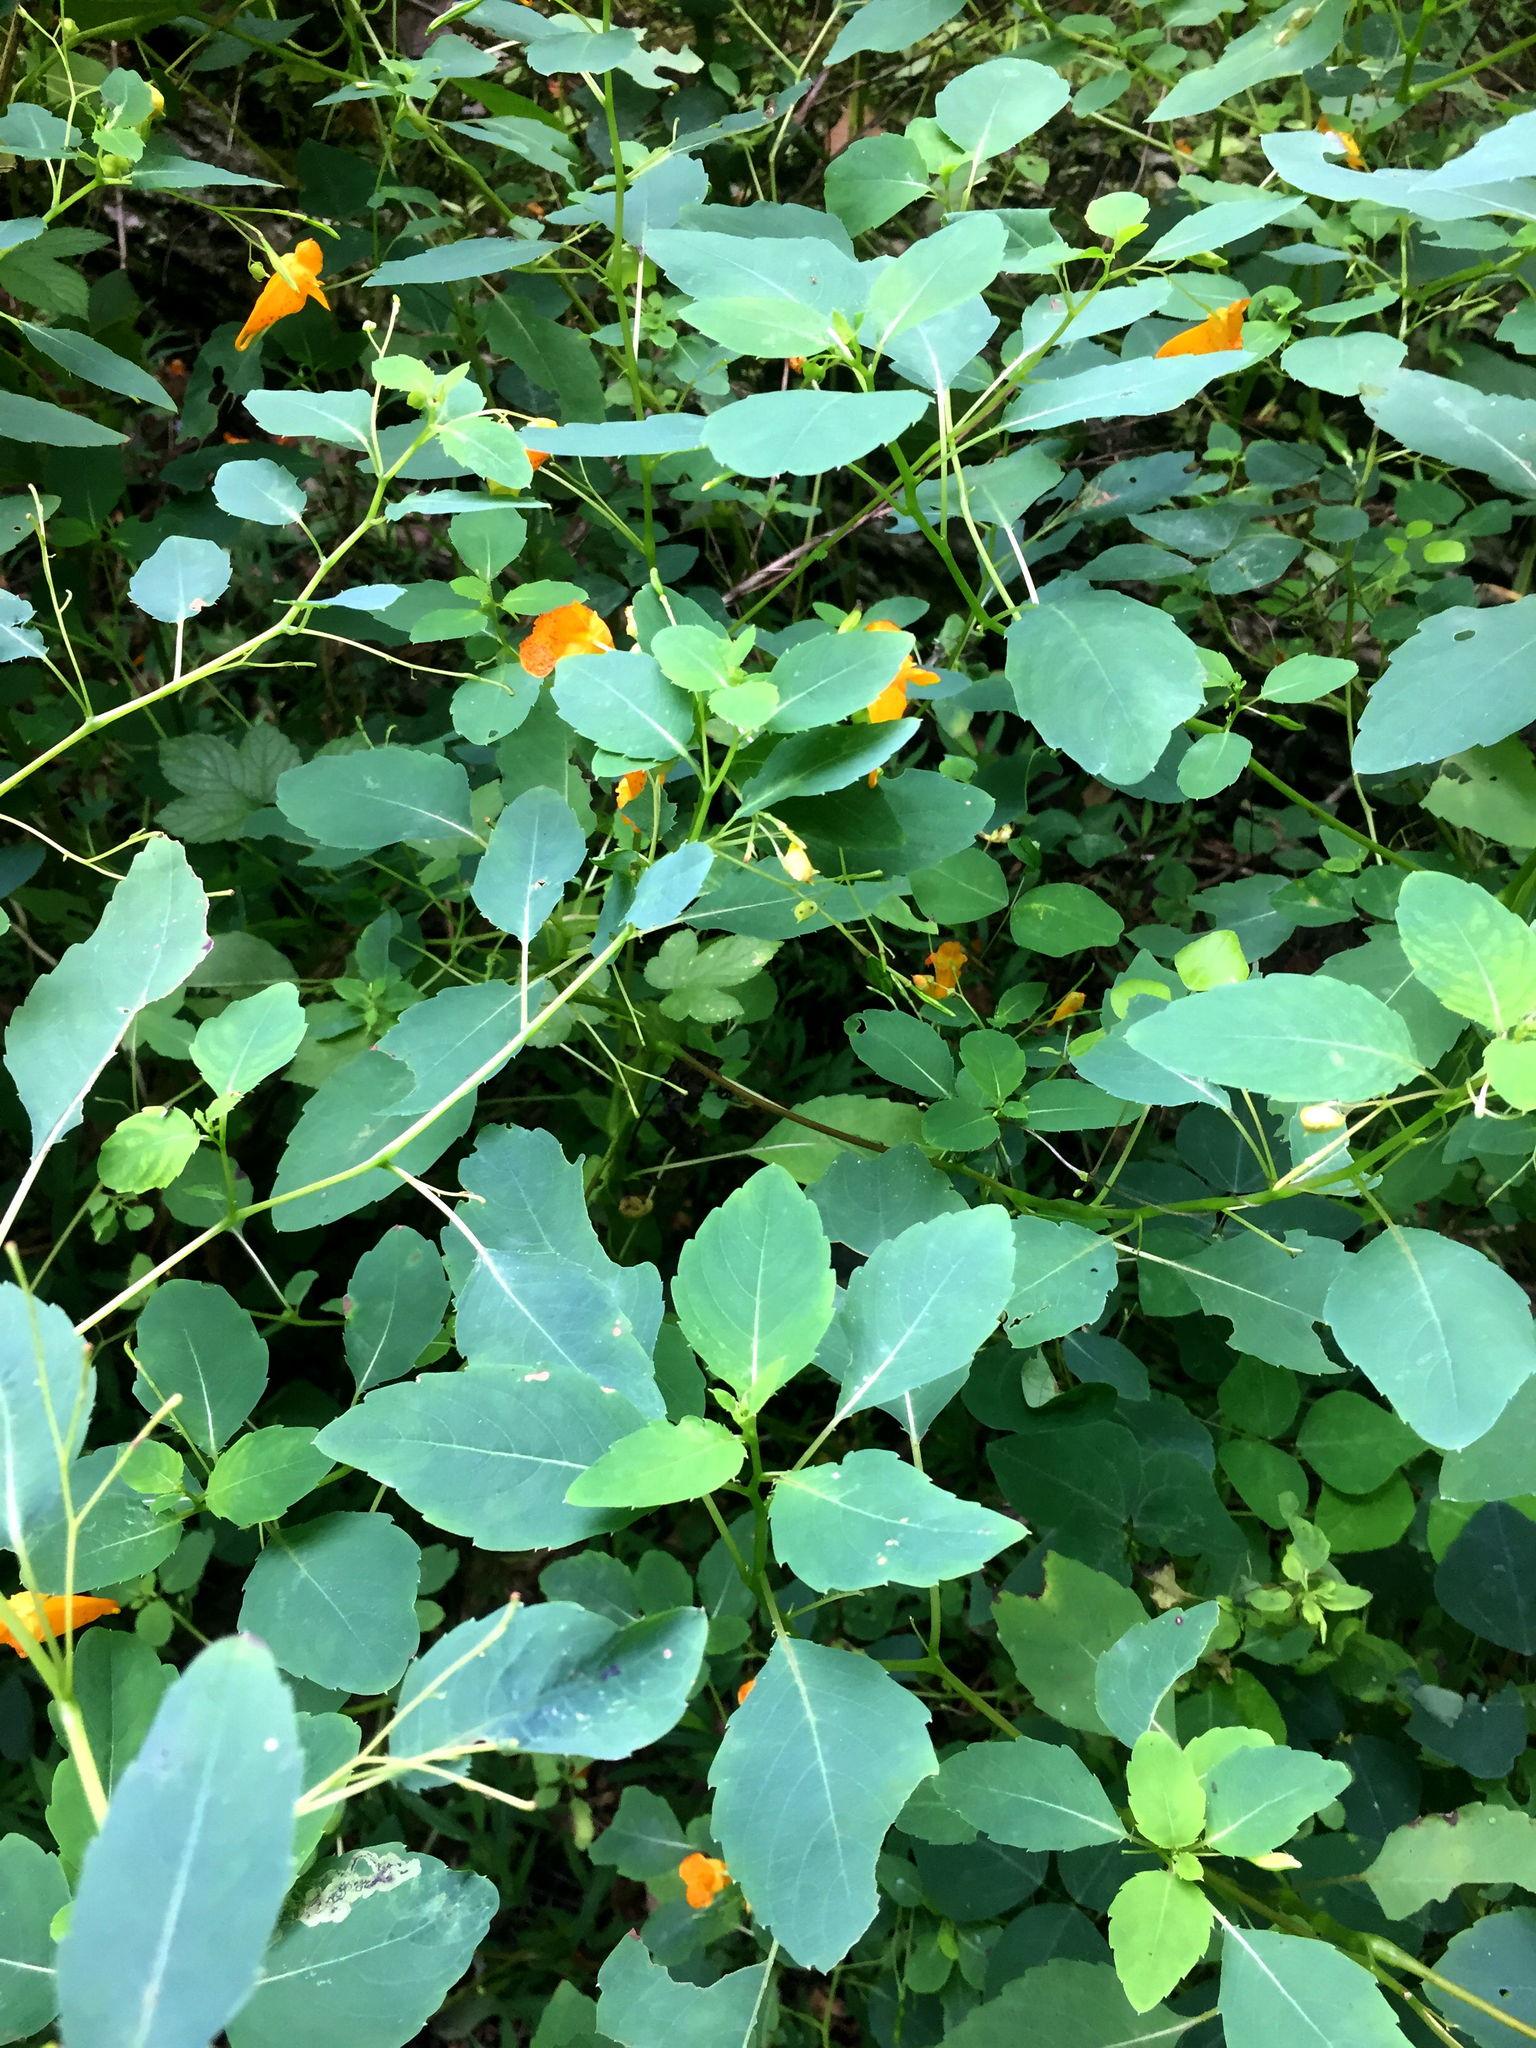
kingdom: Plantae
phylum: Tracheophyta
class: Magnoliopsida
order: Ericales
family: Balsaminaceae
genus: Impatiens
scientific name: Impatiens capensis
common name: Orange balsam
